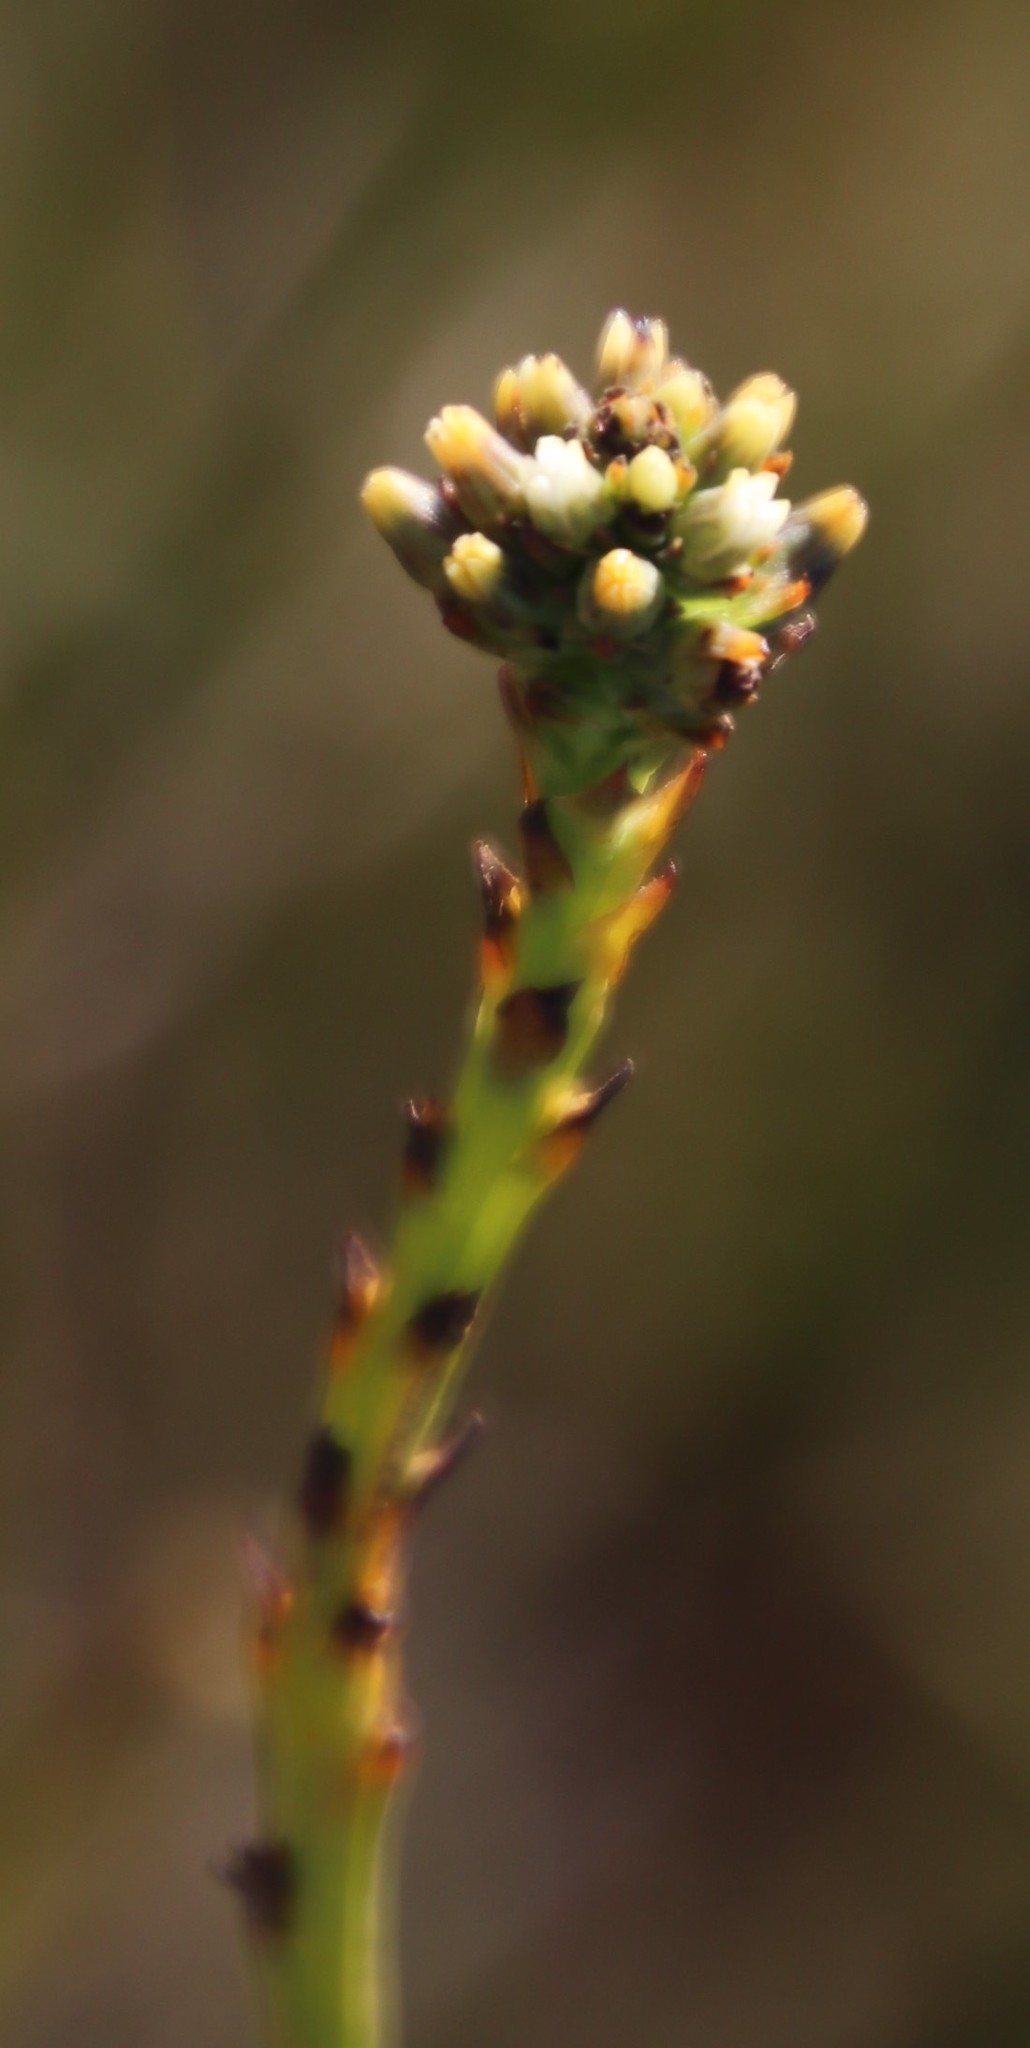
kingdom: Plantae
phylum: Tracheophyta
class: Magnoliopsida
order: Santalales
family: Thesiaceae
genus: Thesium
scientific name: Thesium aggregatum
